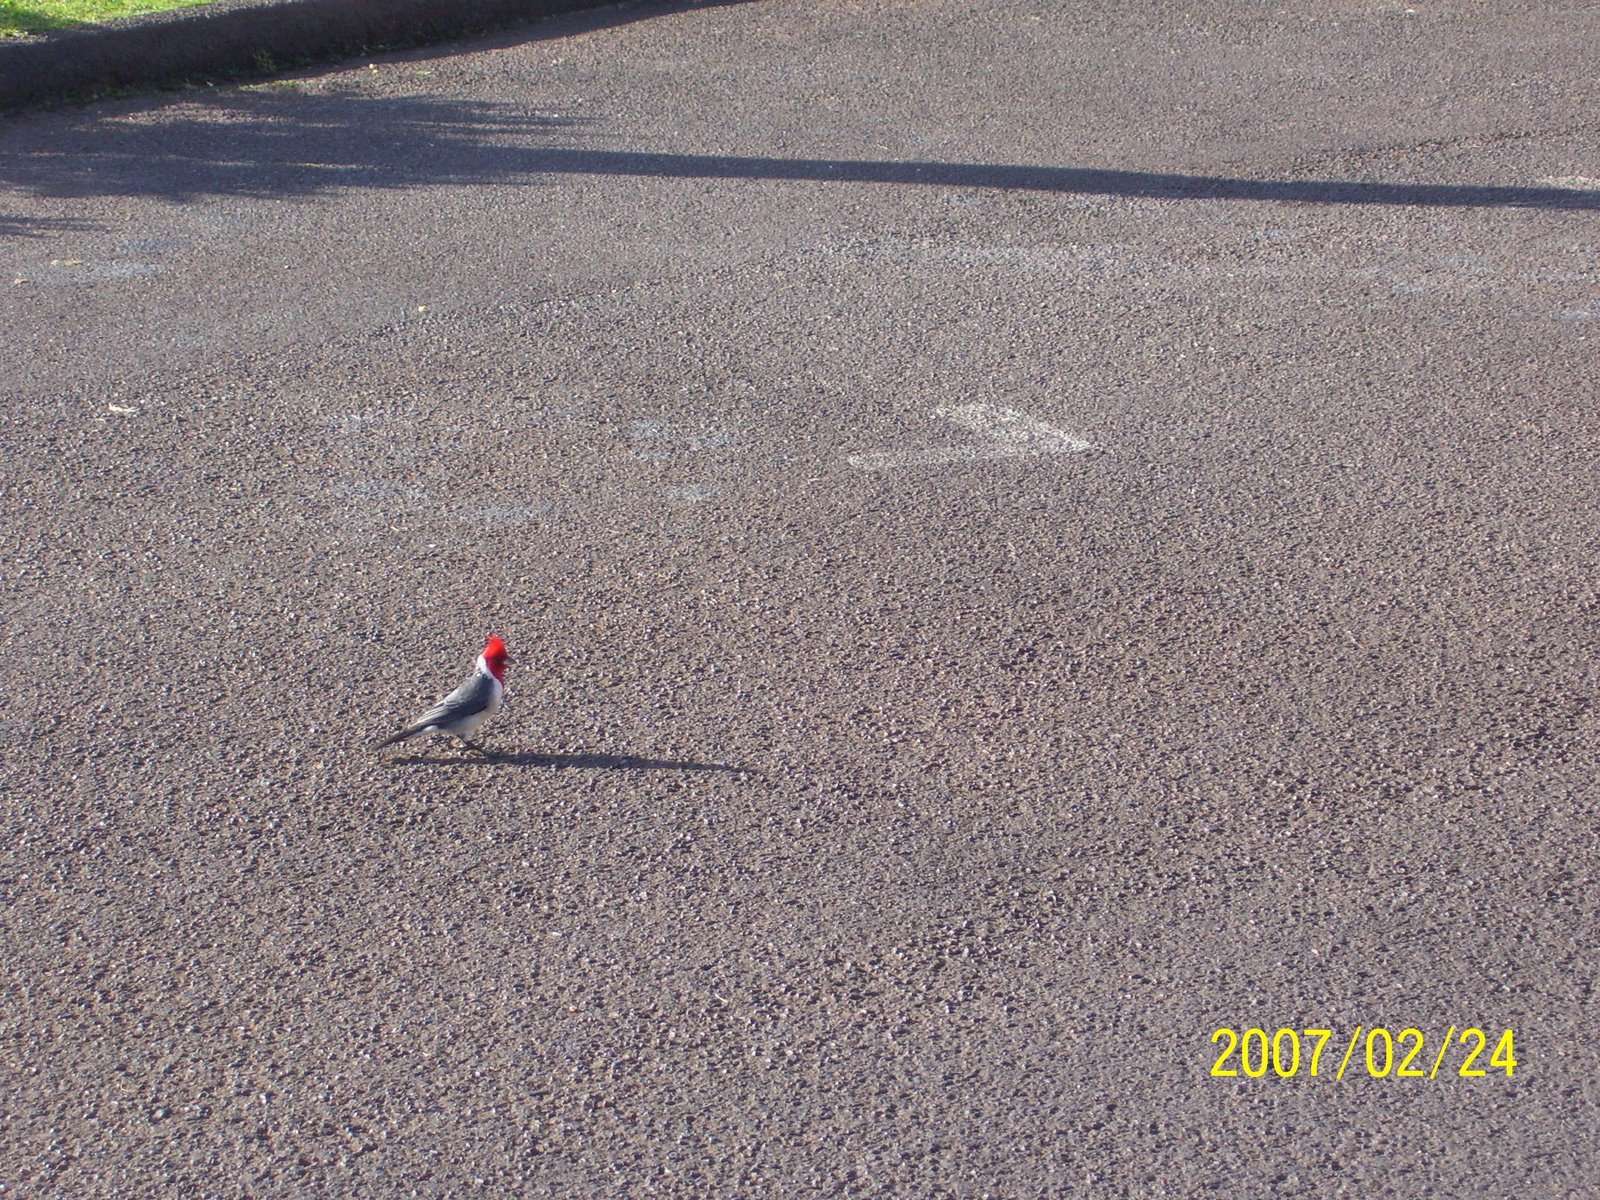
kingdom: Animalia
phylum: Chordata
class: Aves
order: Passeriformes
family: Thraupidae
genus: Paroaria
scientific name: Paroaria coronata
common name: Red-crested cardinal
